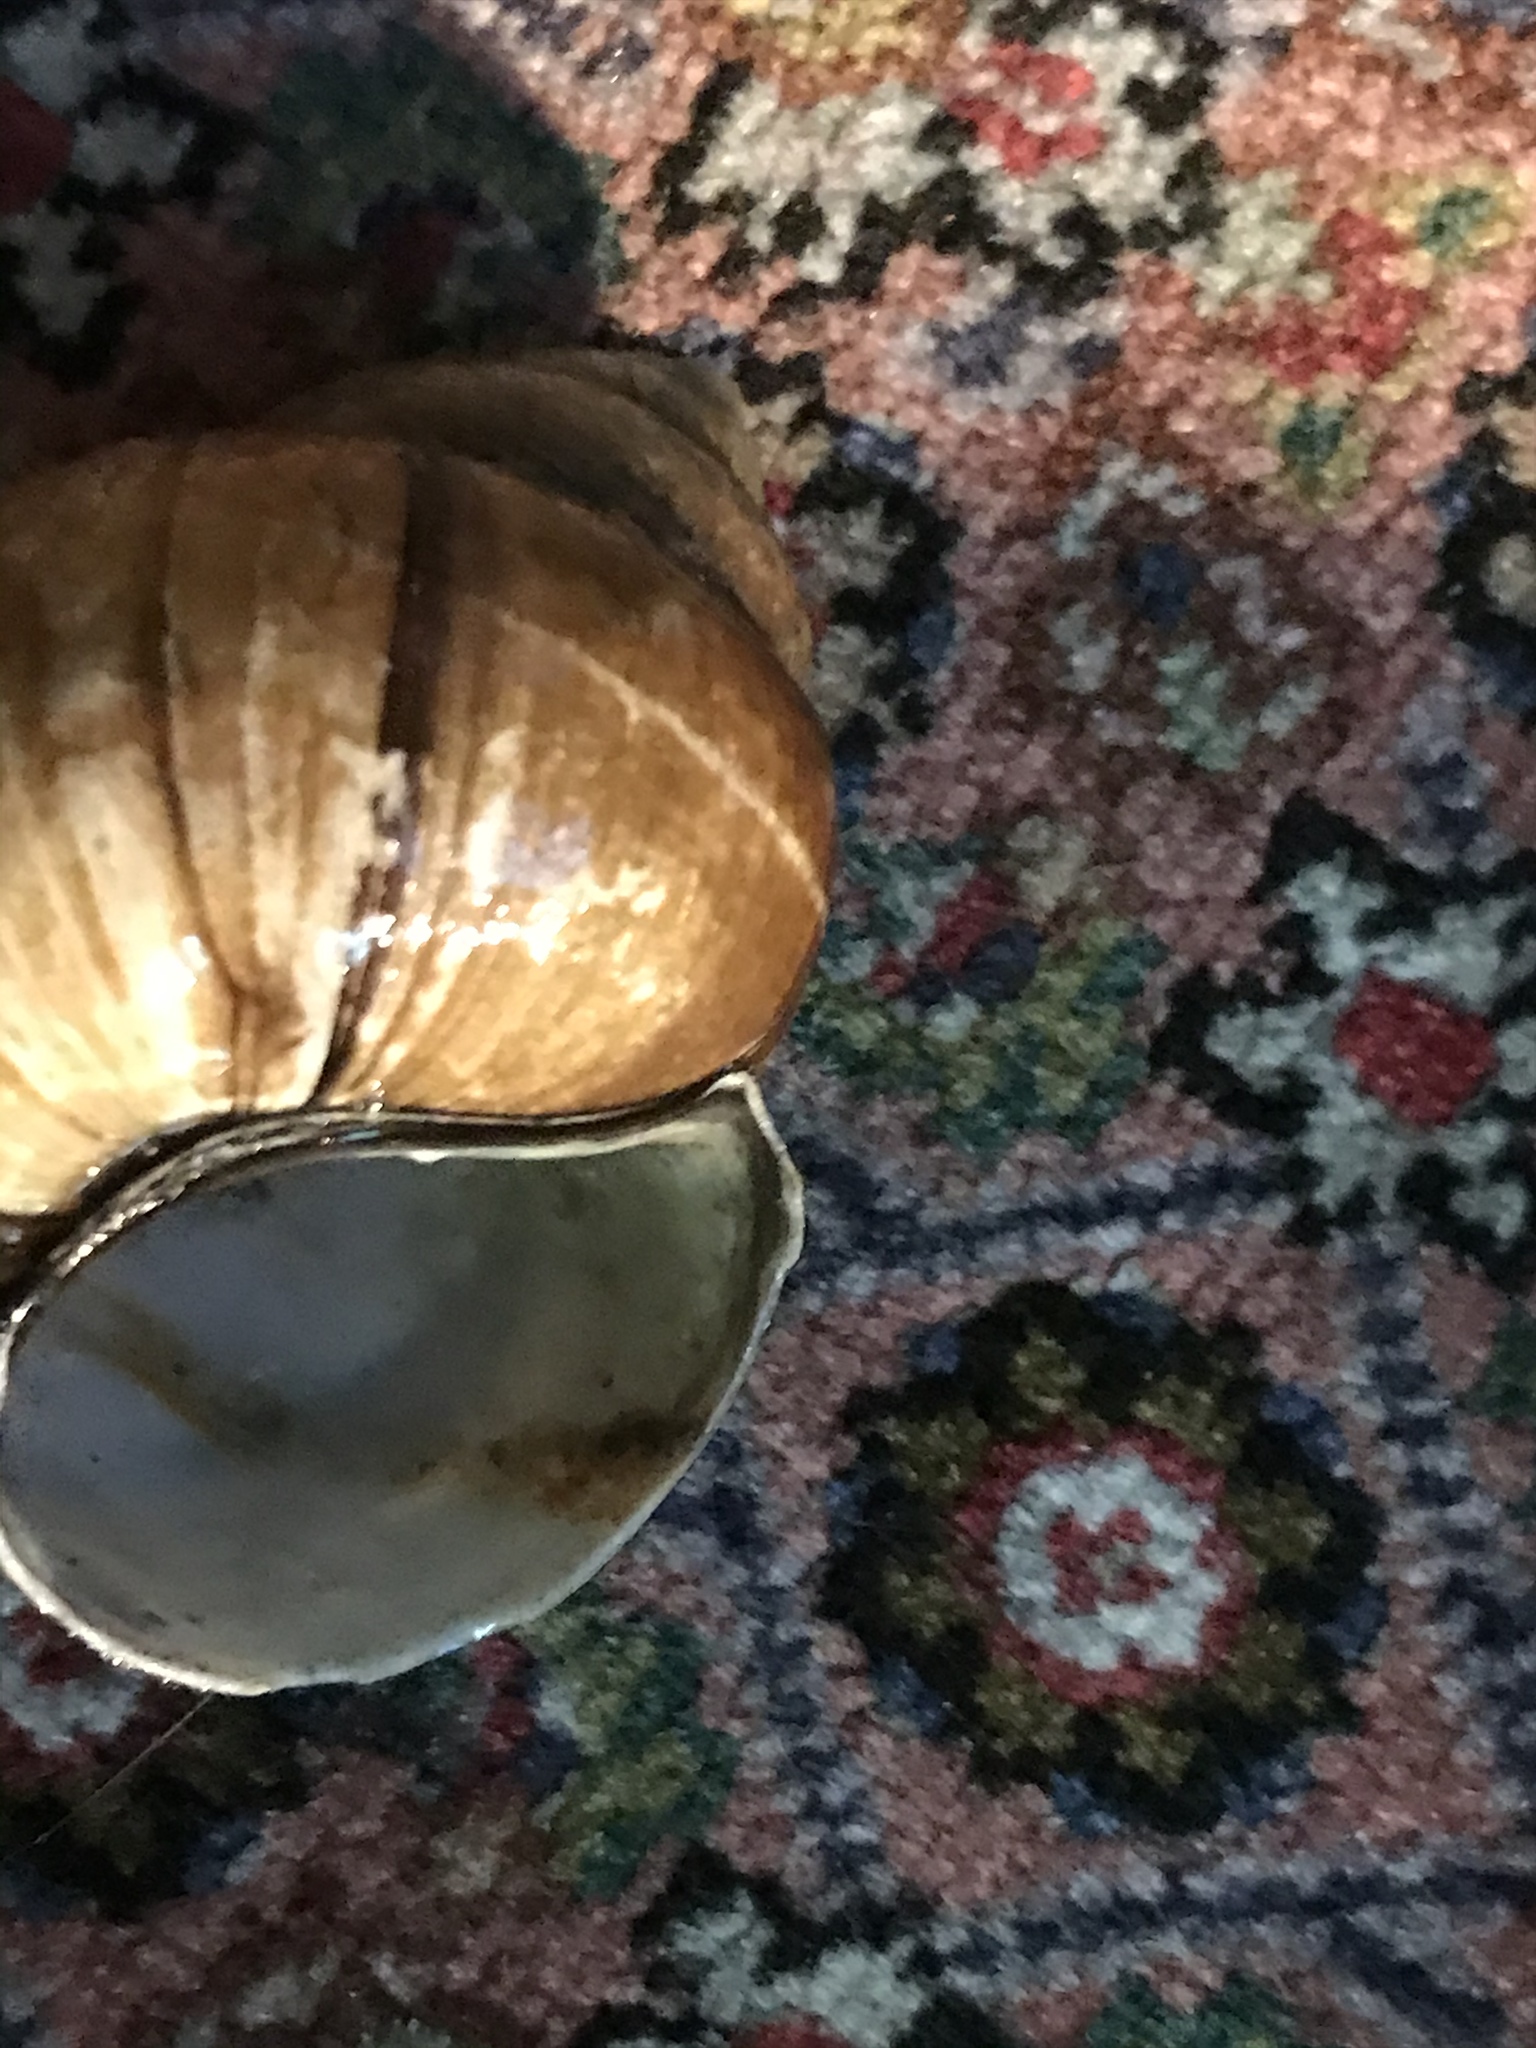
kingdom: Animalia
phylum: Mollusca
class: Gastropoda
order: Architaenioglossa
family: Viviparidae
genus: Cipangopaludina
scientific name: Cipangopaludina chinensis
